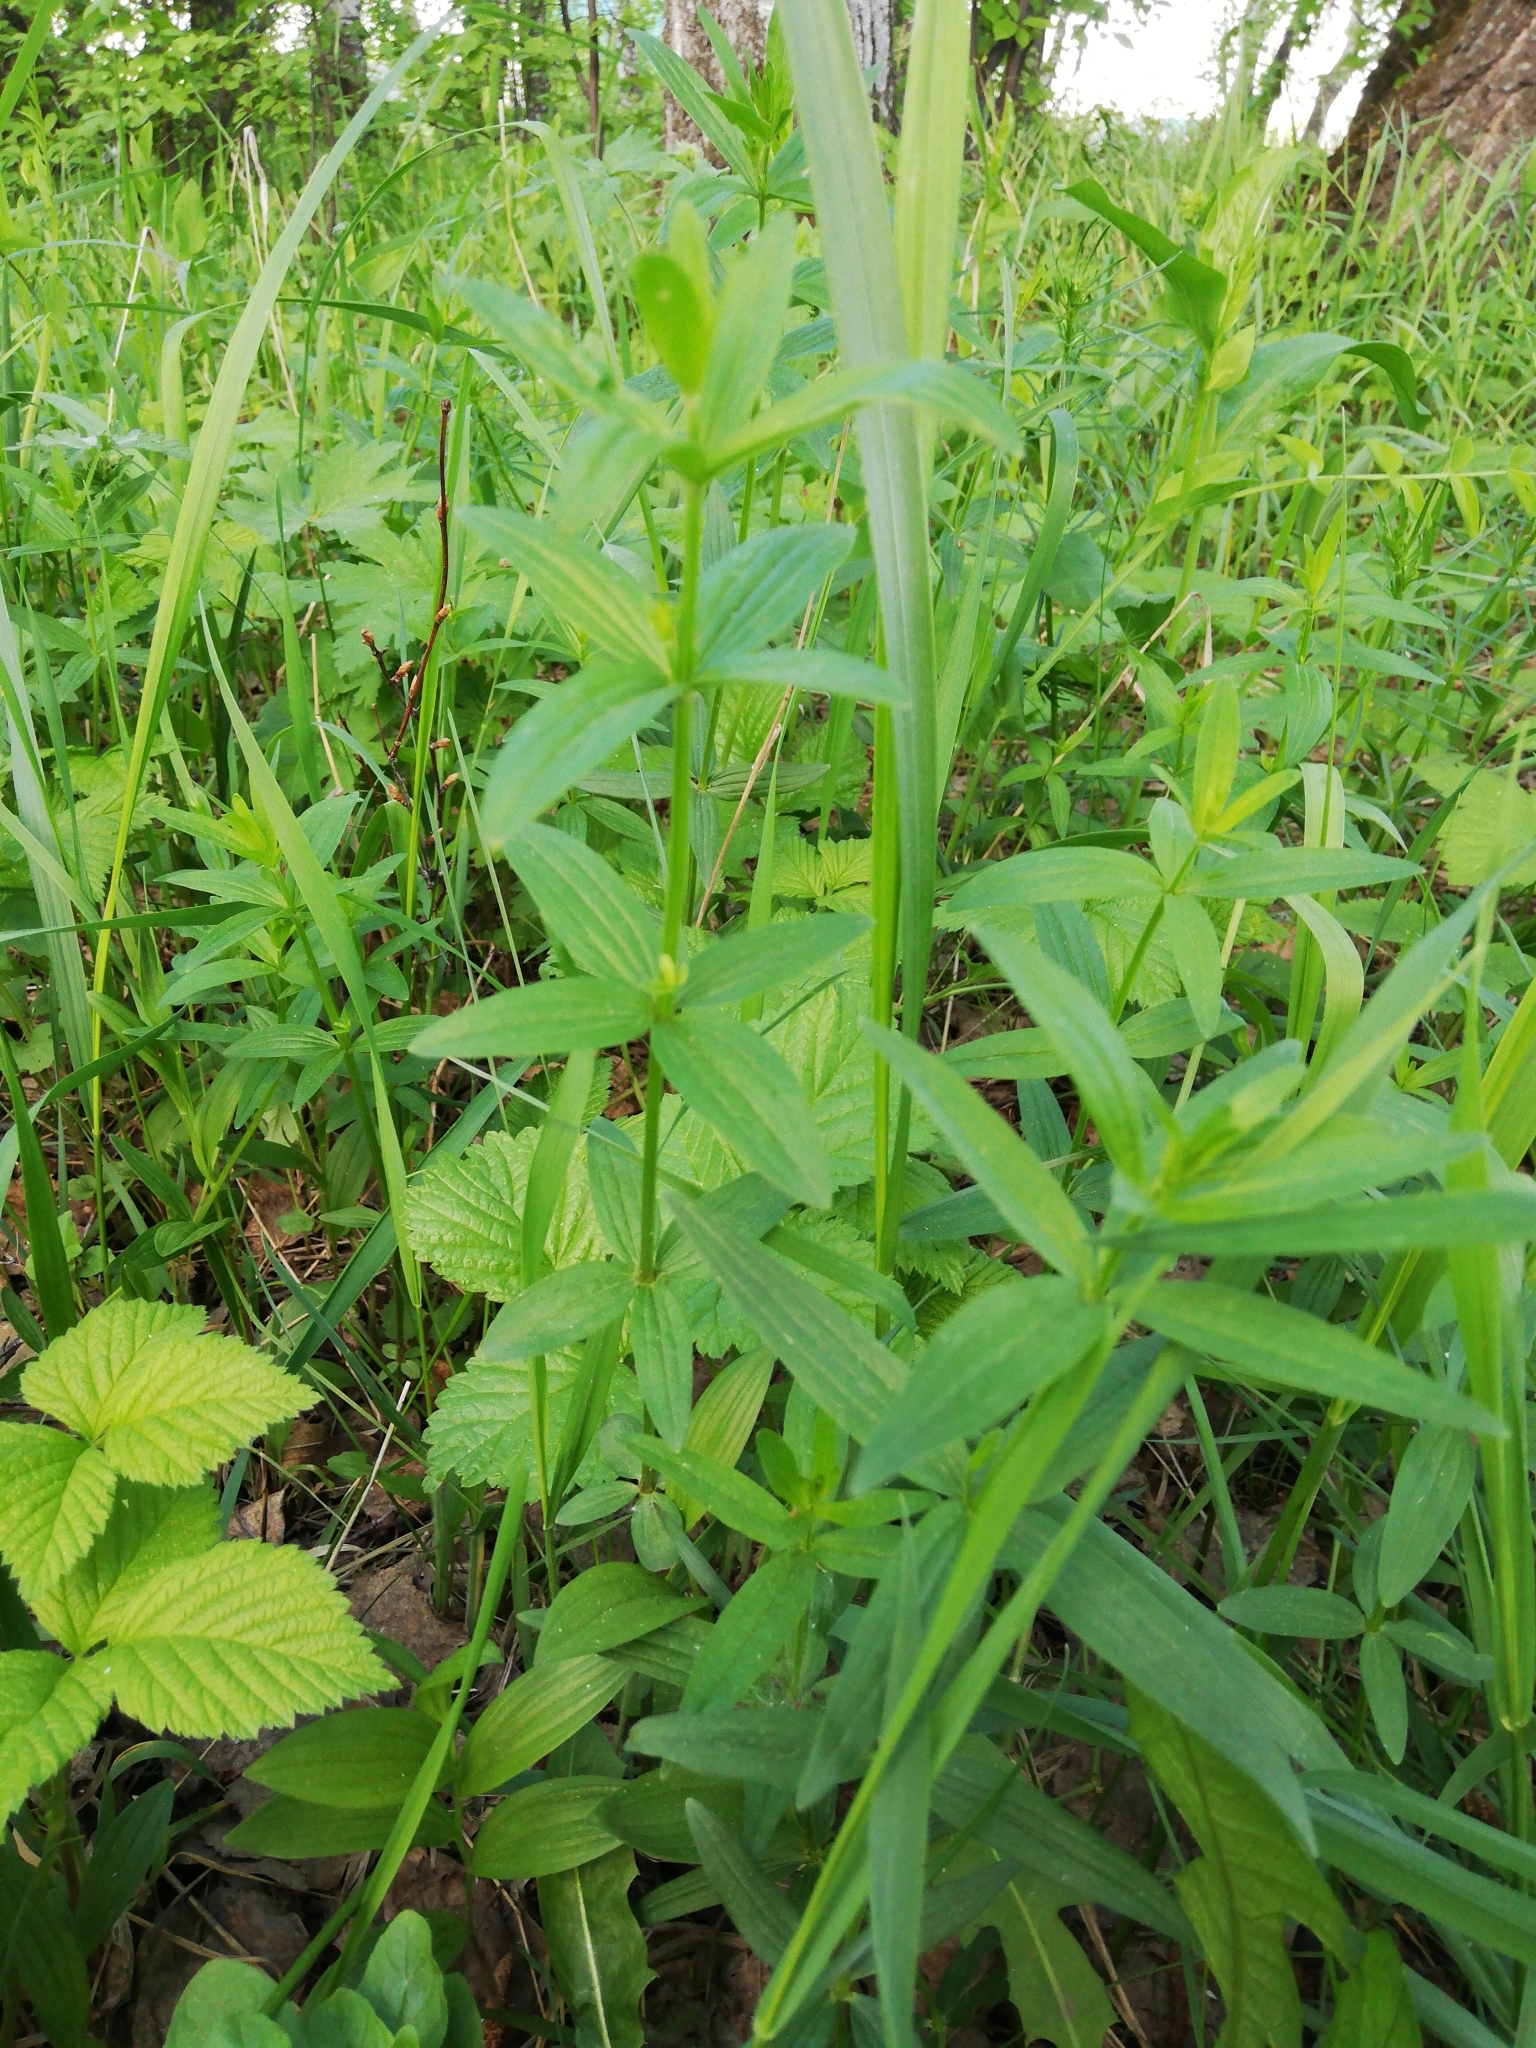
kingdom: Plantae
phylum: Tracheophyta
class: Magnoliopsida
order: Gentianales
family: Rubiaceae
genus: Galium
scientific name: Galium boreale
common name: Northern bedstraw
